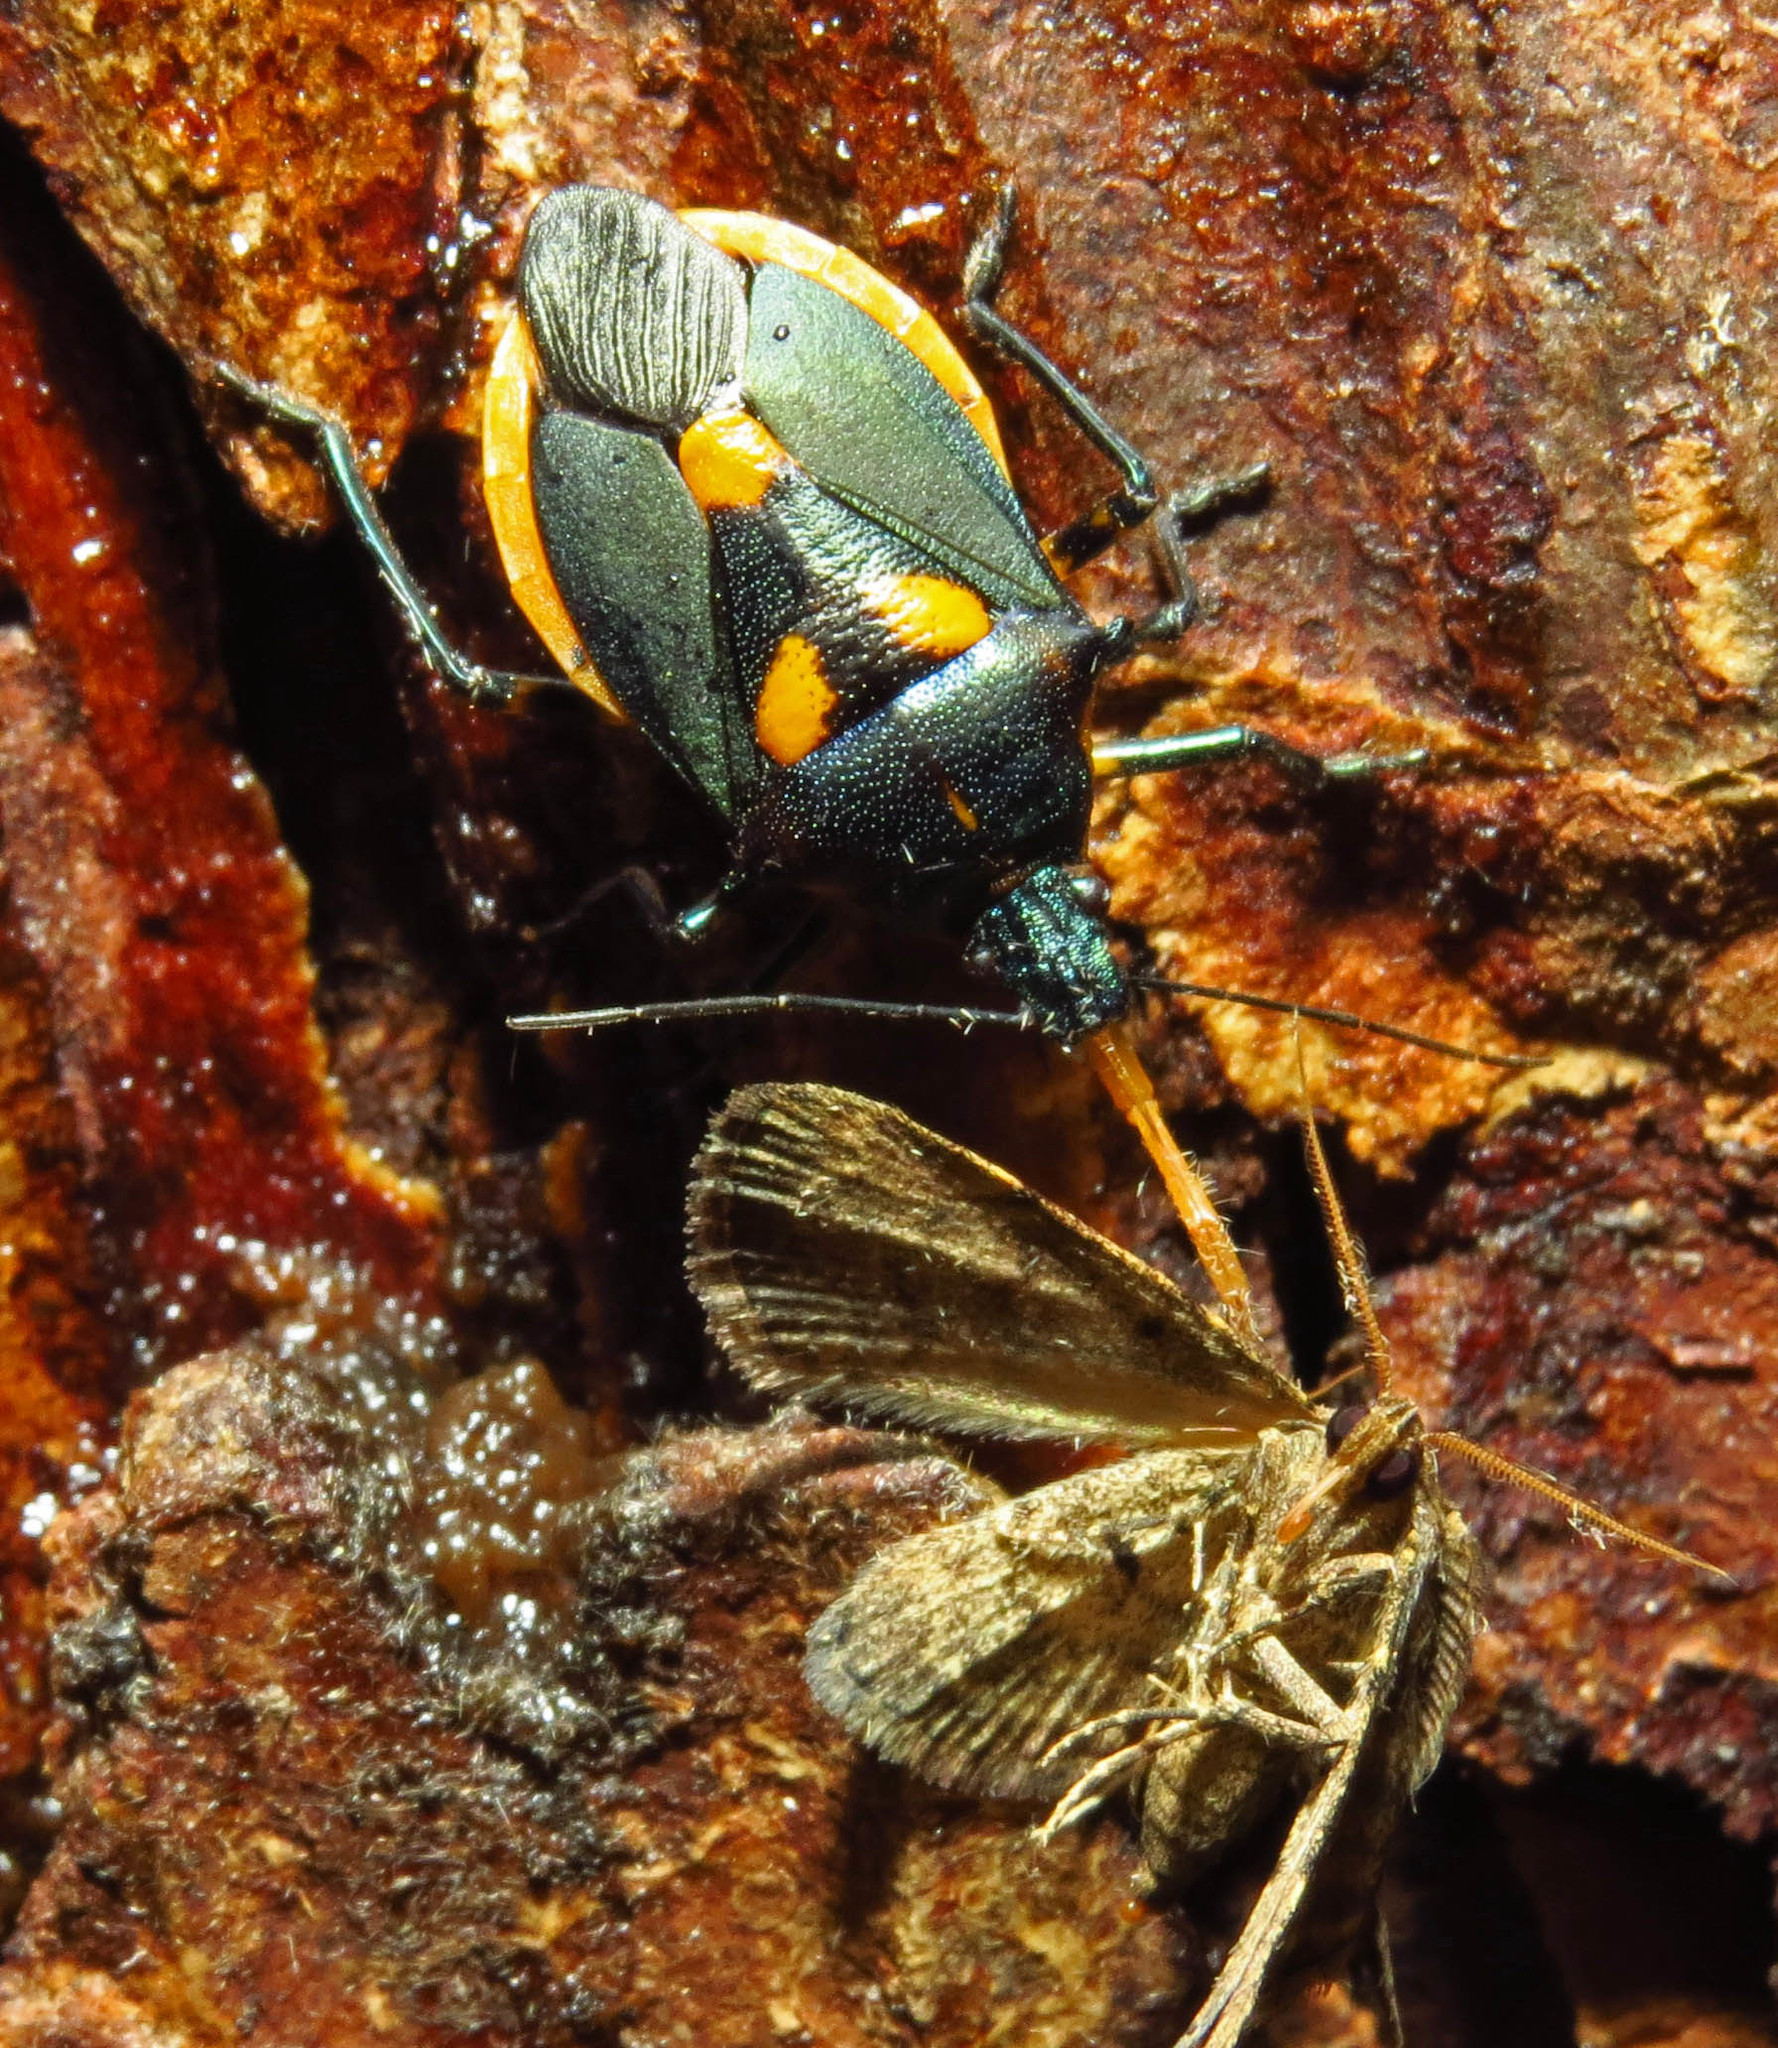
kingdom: Animalia
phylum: Arthropoda
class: Insecta
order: Hemiptera
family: Pentatomidae
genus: Euthyrhynchus
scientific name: Euthyrhynchus floridanus
